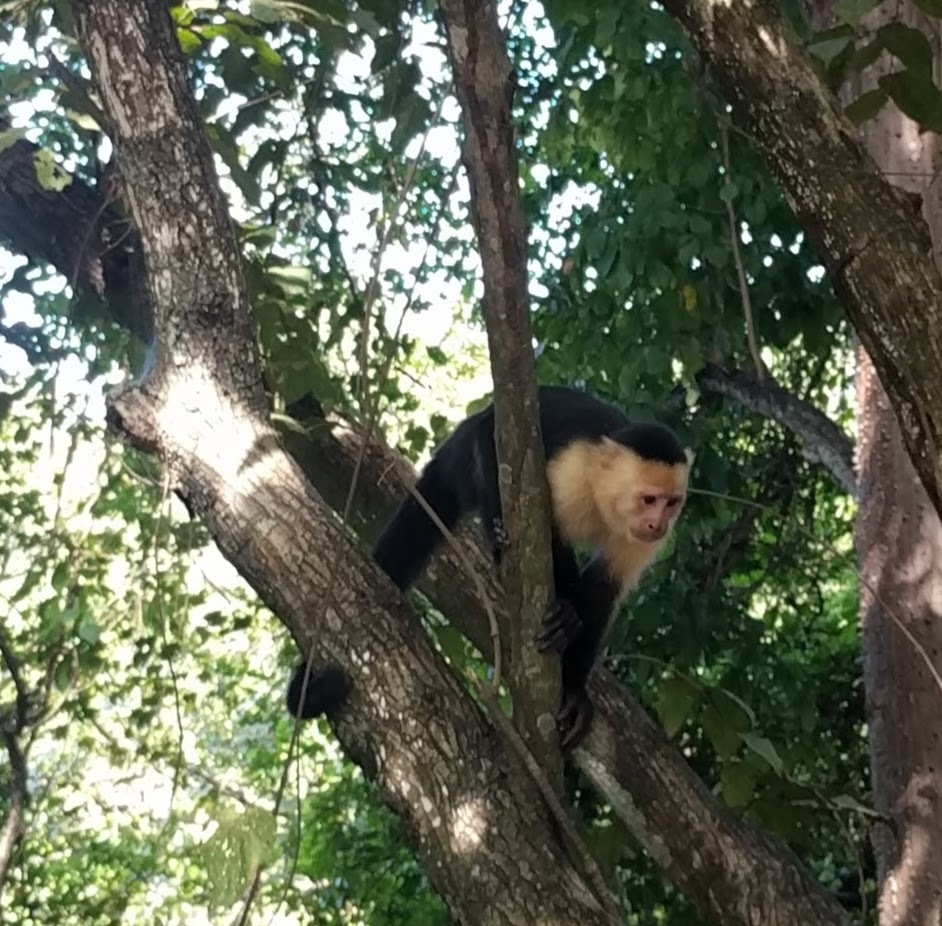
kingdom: Animalia
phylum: Chordata
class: Mammalia
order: Primates
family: Cebidae
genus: Cebus
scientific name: Cebus imitator
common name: Panamanian white-faced capuchin
